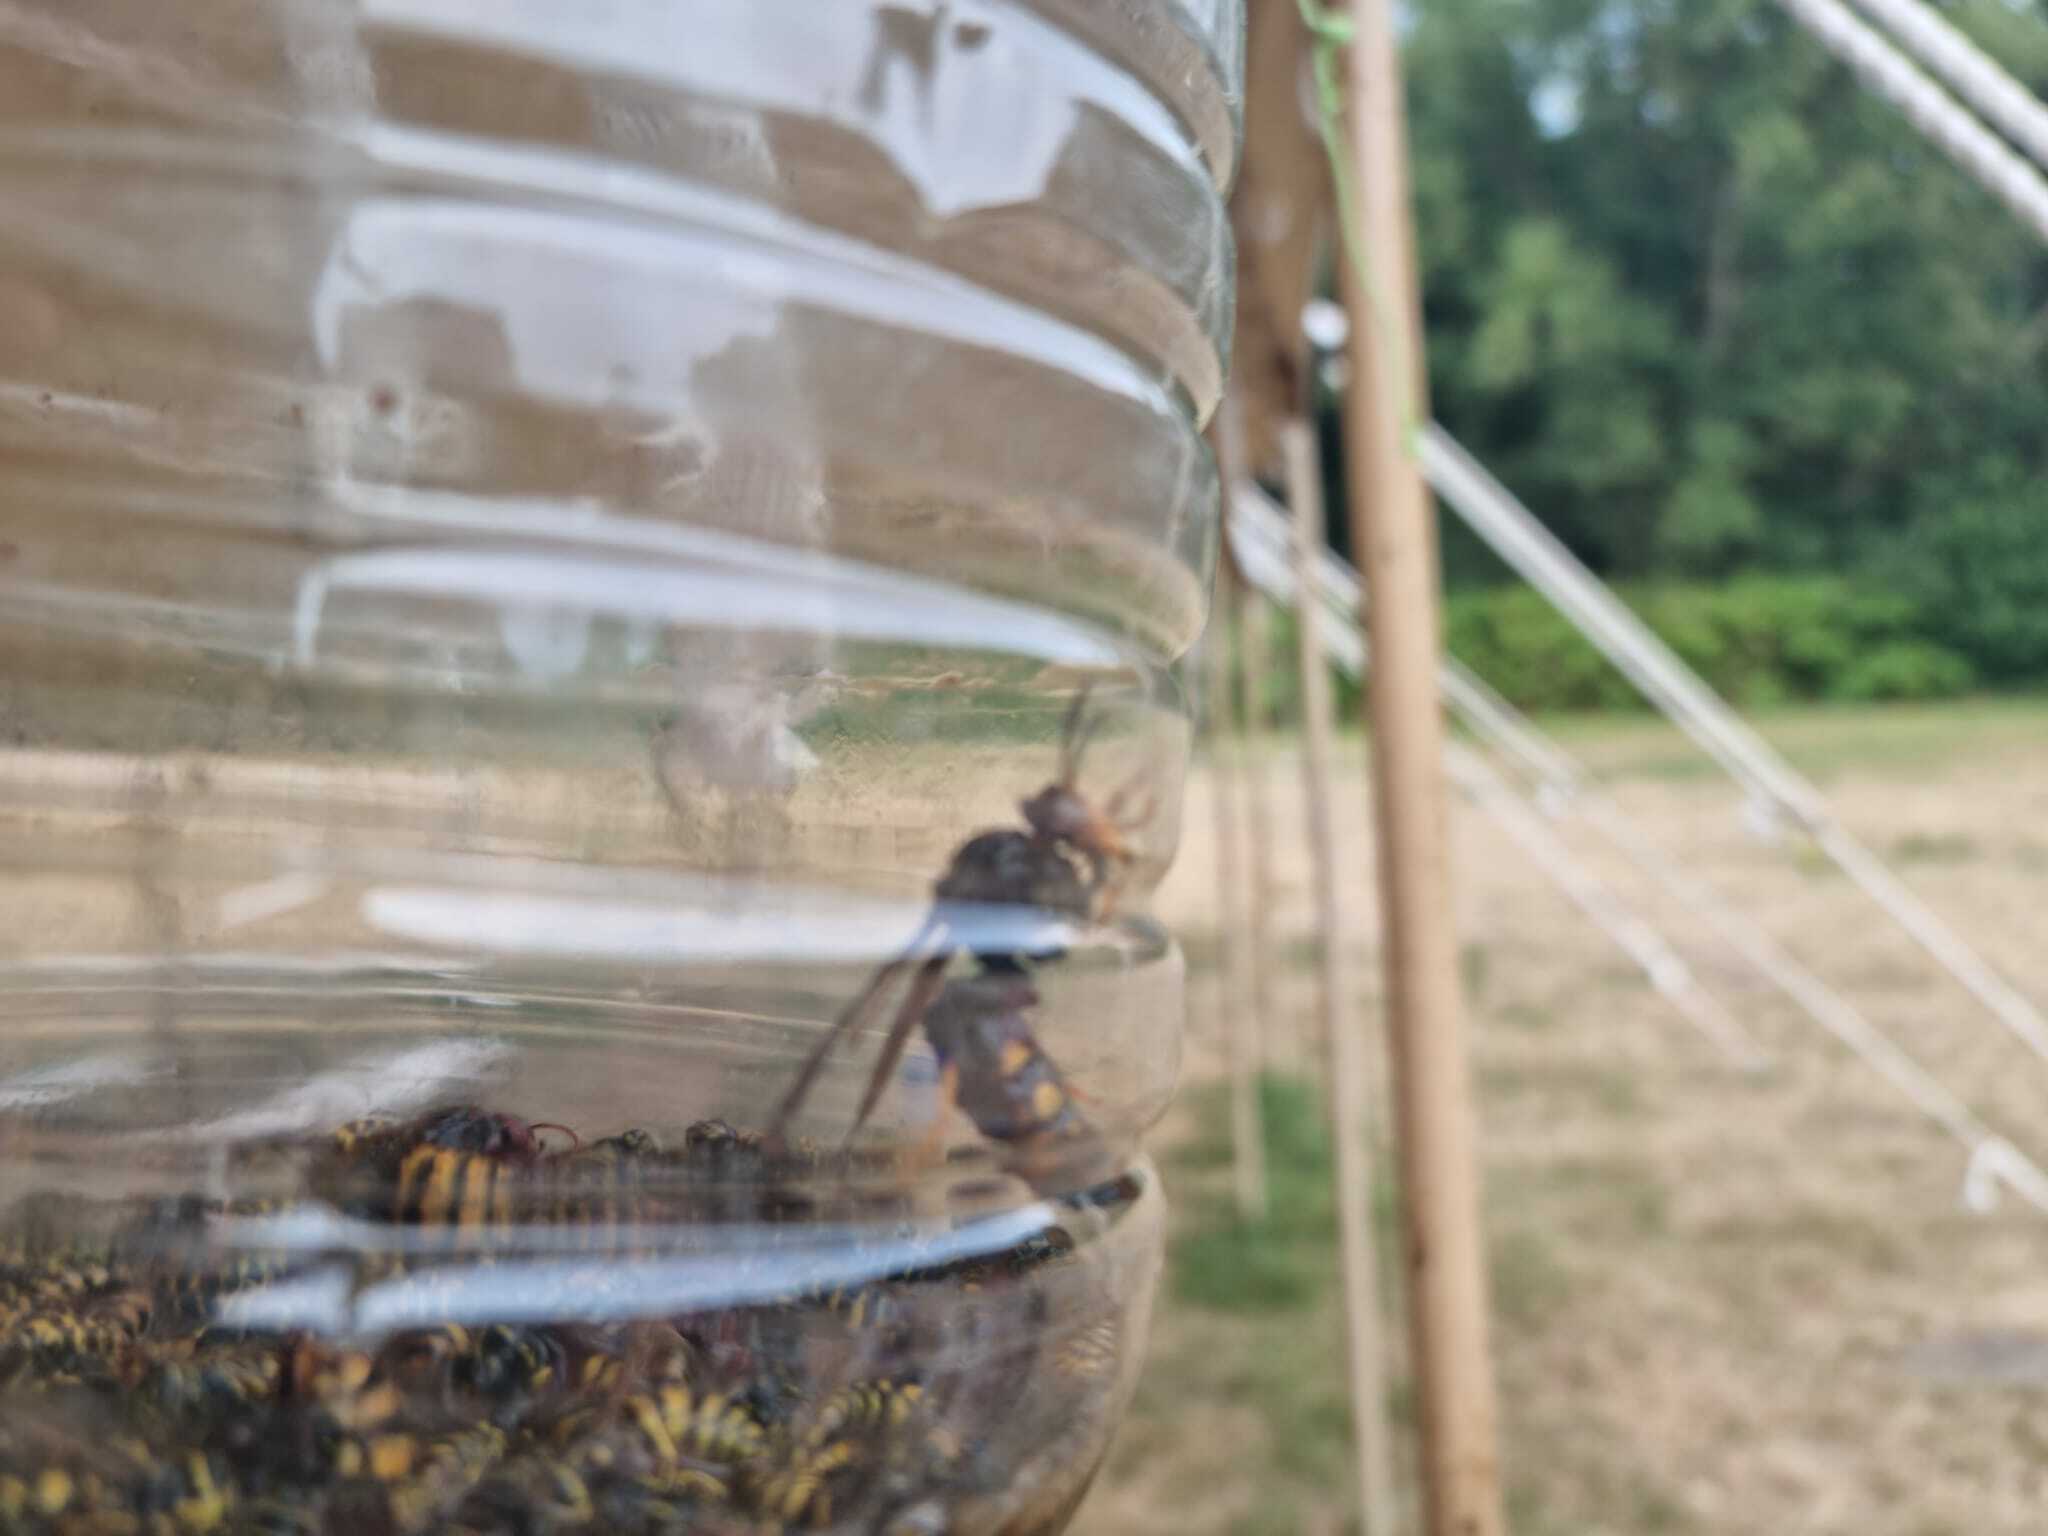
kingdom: Animalia
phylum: Arthropoda
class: Insecta
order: Hymenoptera
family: Vespidae
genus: Vespa
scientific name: Vespa velutina
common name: Asian hornet
